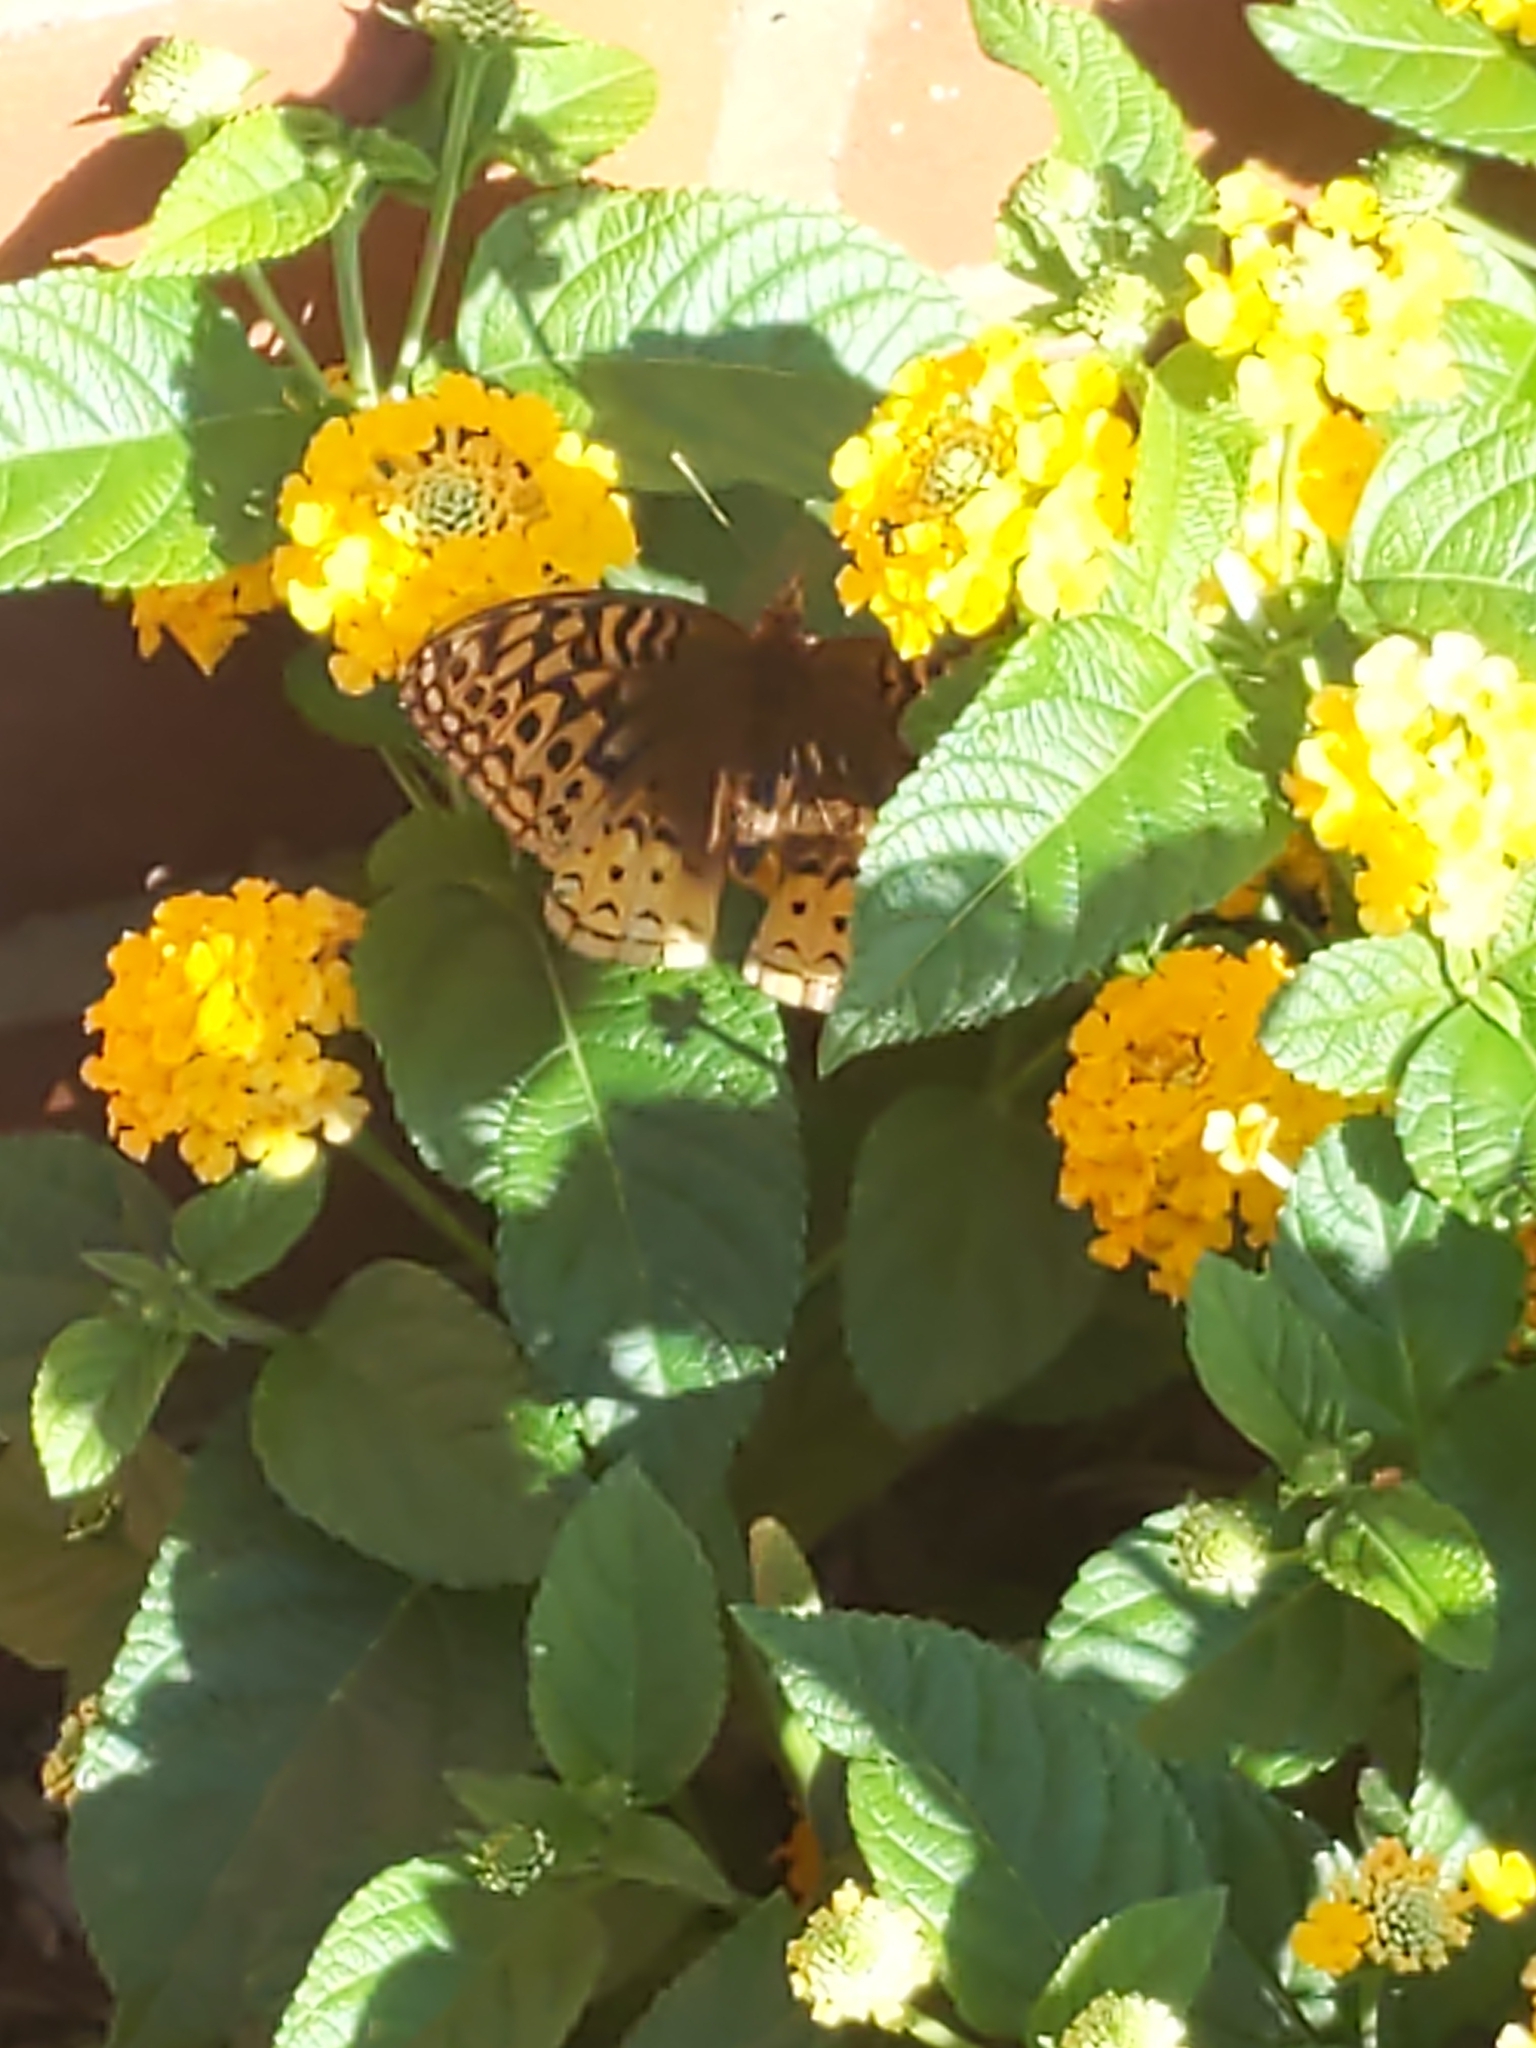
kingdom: Animalia
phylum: Arthropoda
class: Insecta
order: Lepidoptera
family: Nymphalidae
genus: Speyeria
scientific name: Speyeria cybele
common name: Great spangled fritillary
